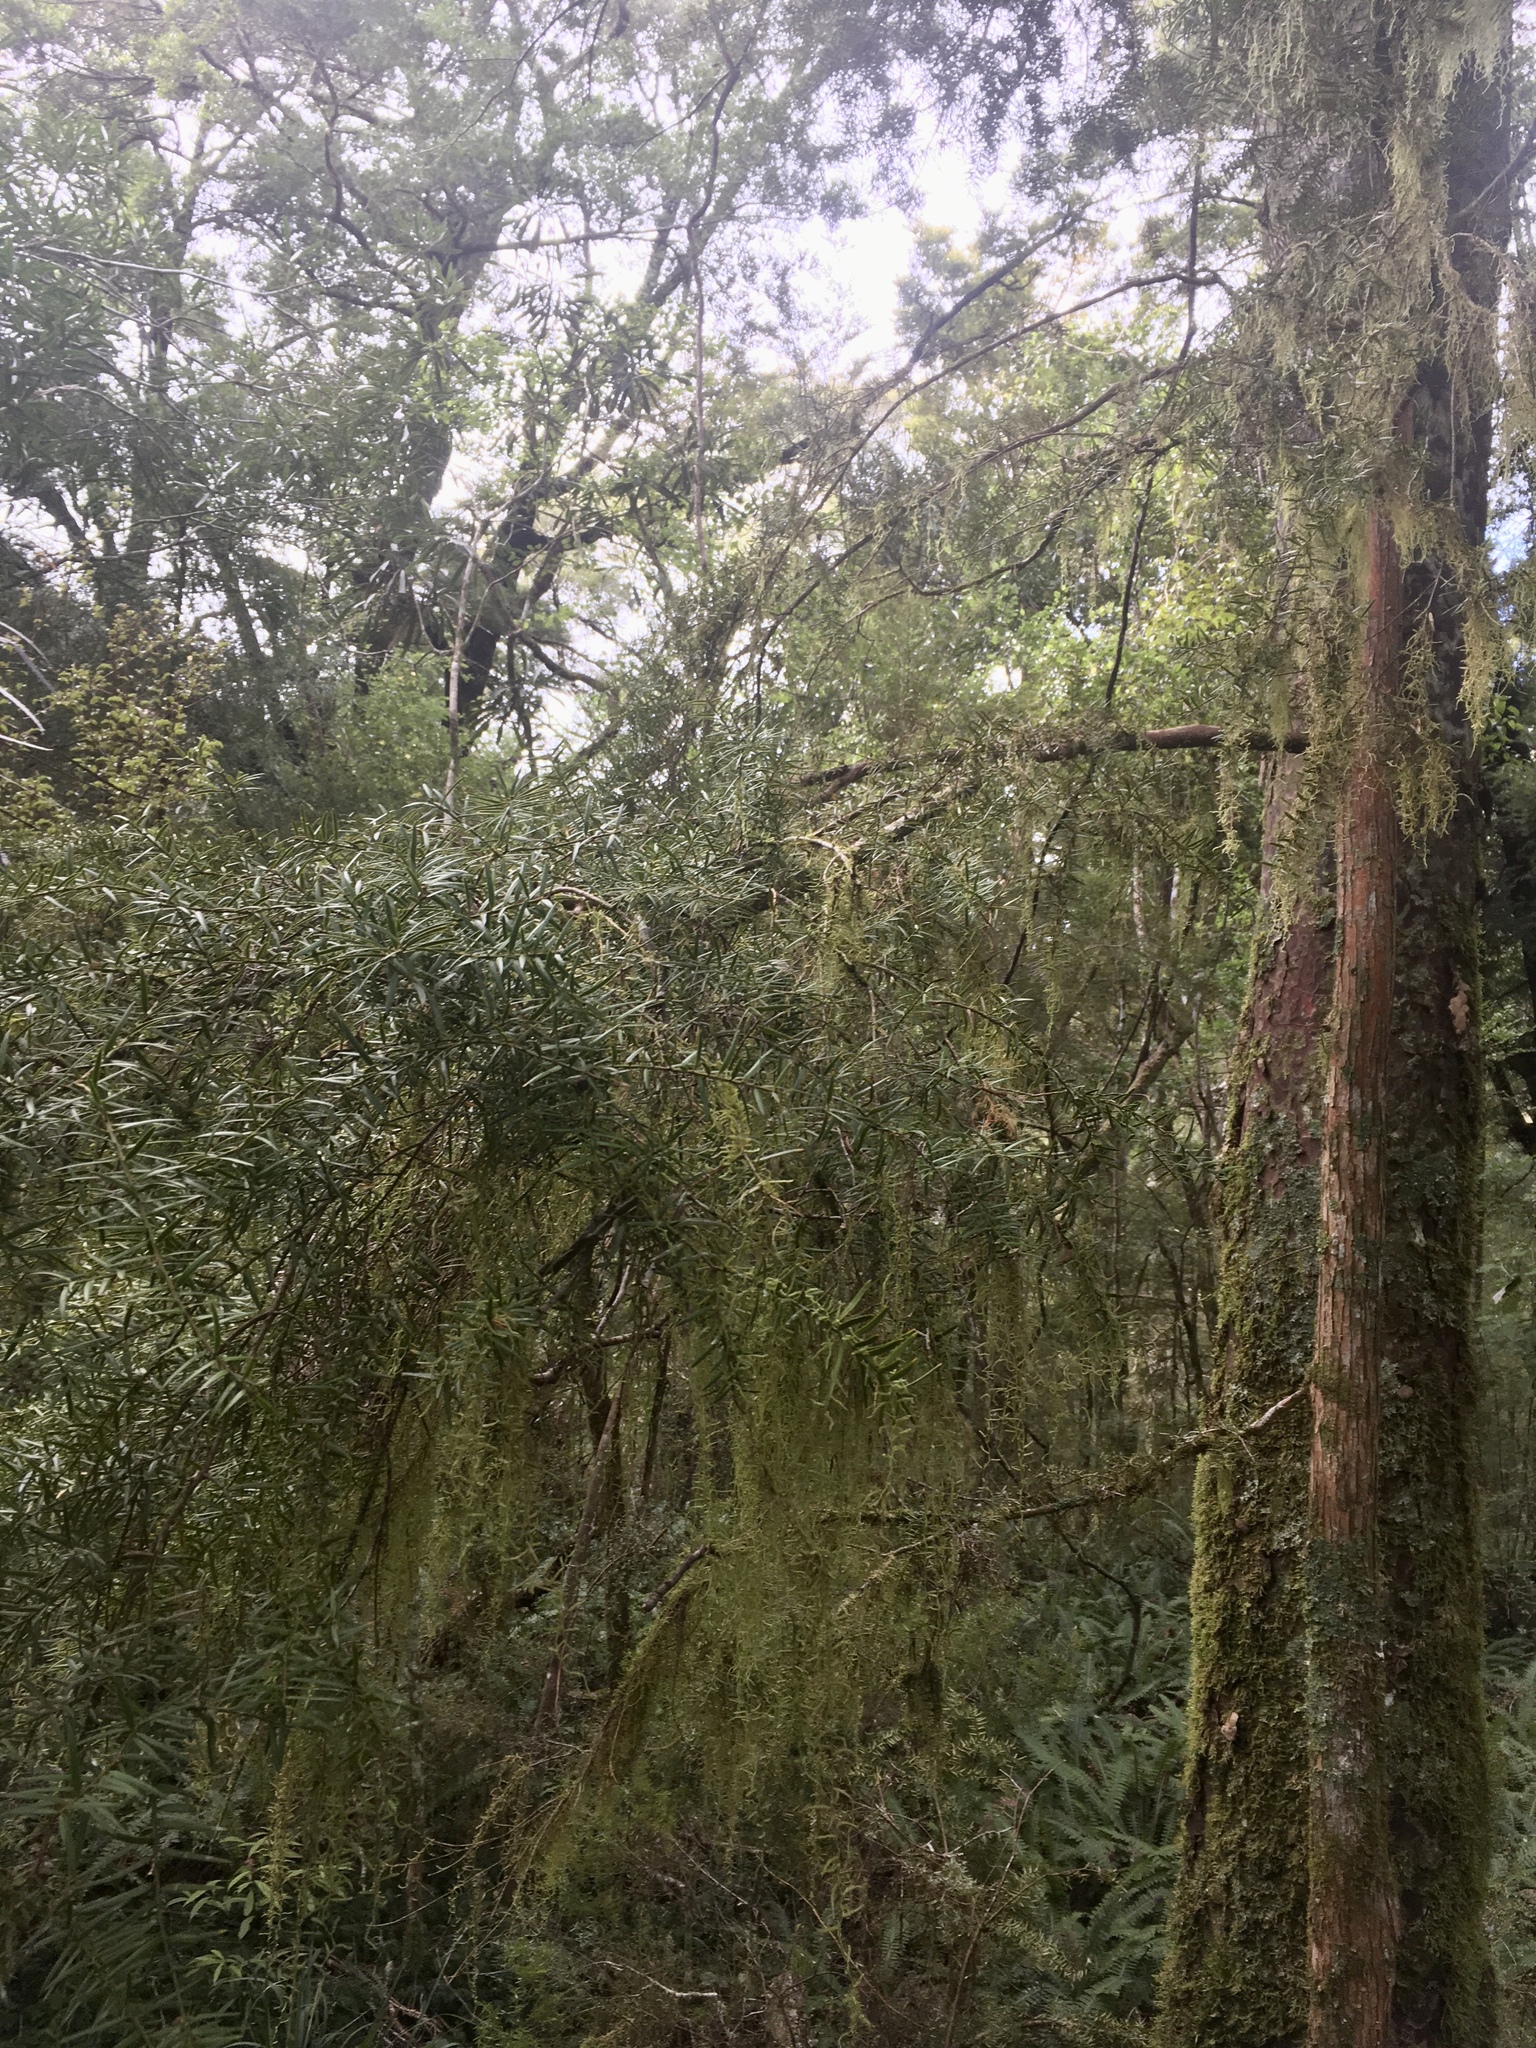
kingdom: Plantae
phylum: Tracheophyta
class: Pinopsida
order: Pinales
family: Podocarpaceae
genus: Podocarpus
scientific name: Podocarpus laetus
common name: Hall's totara
